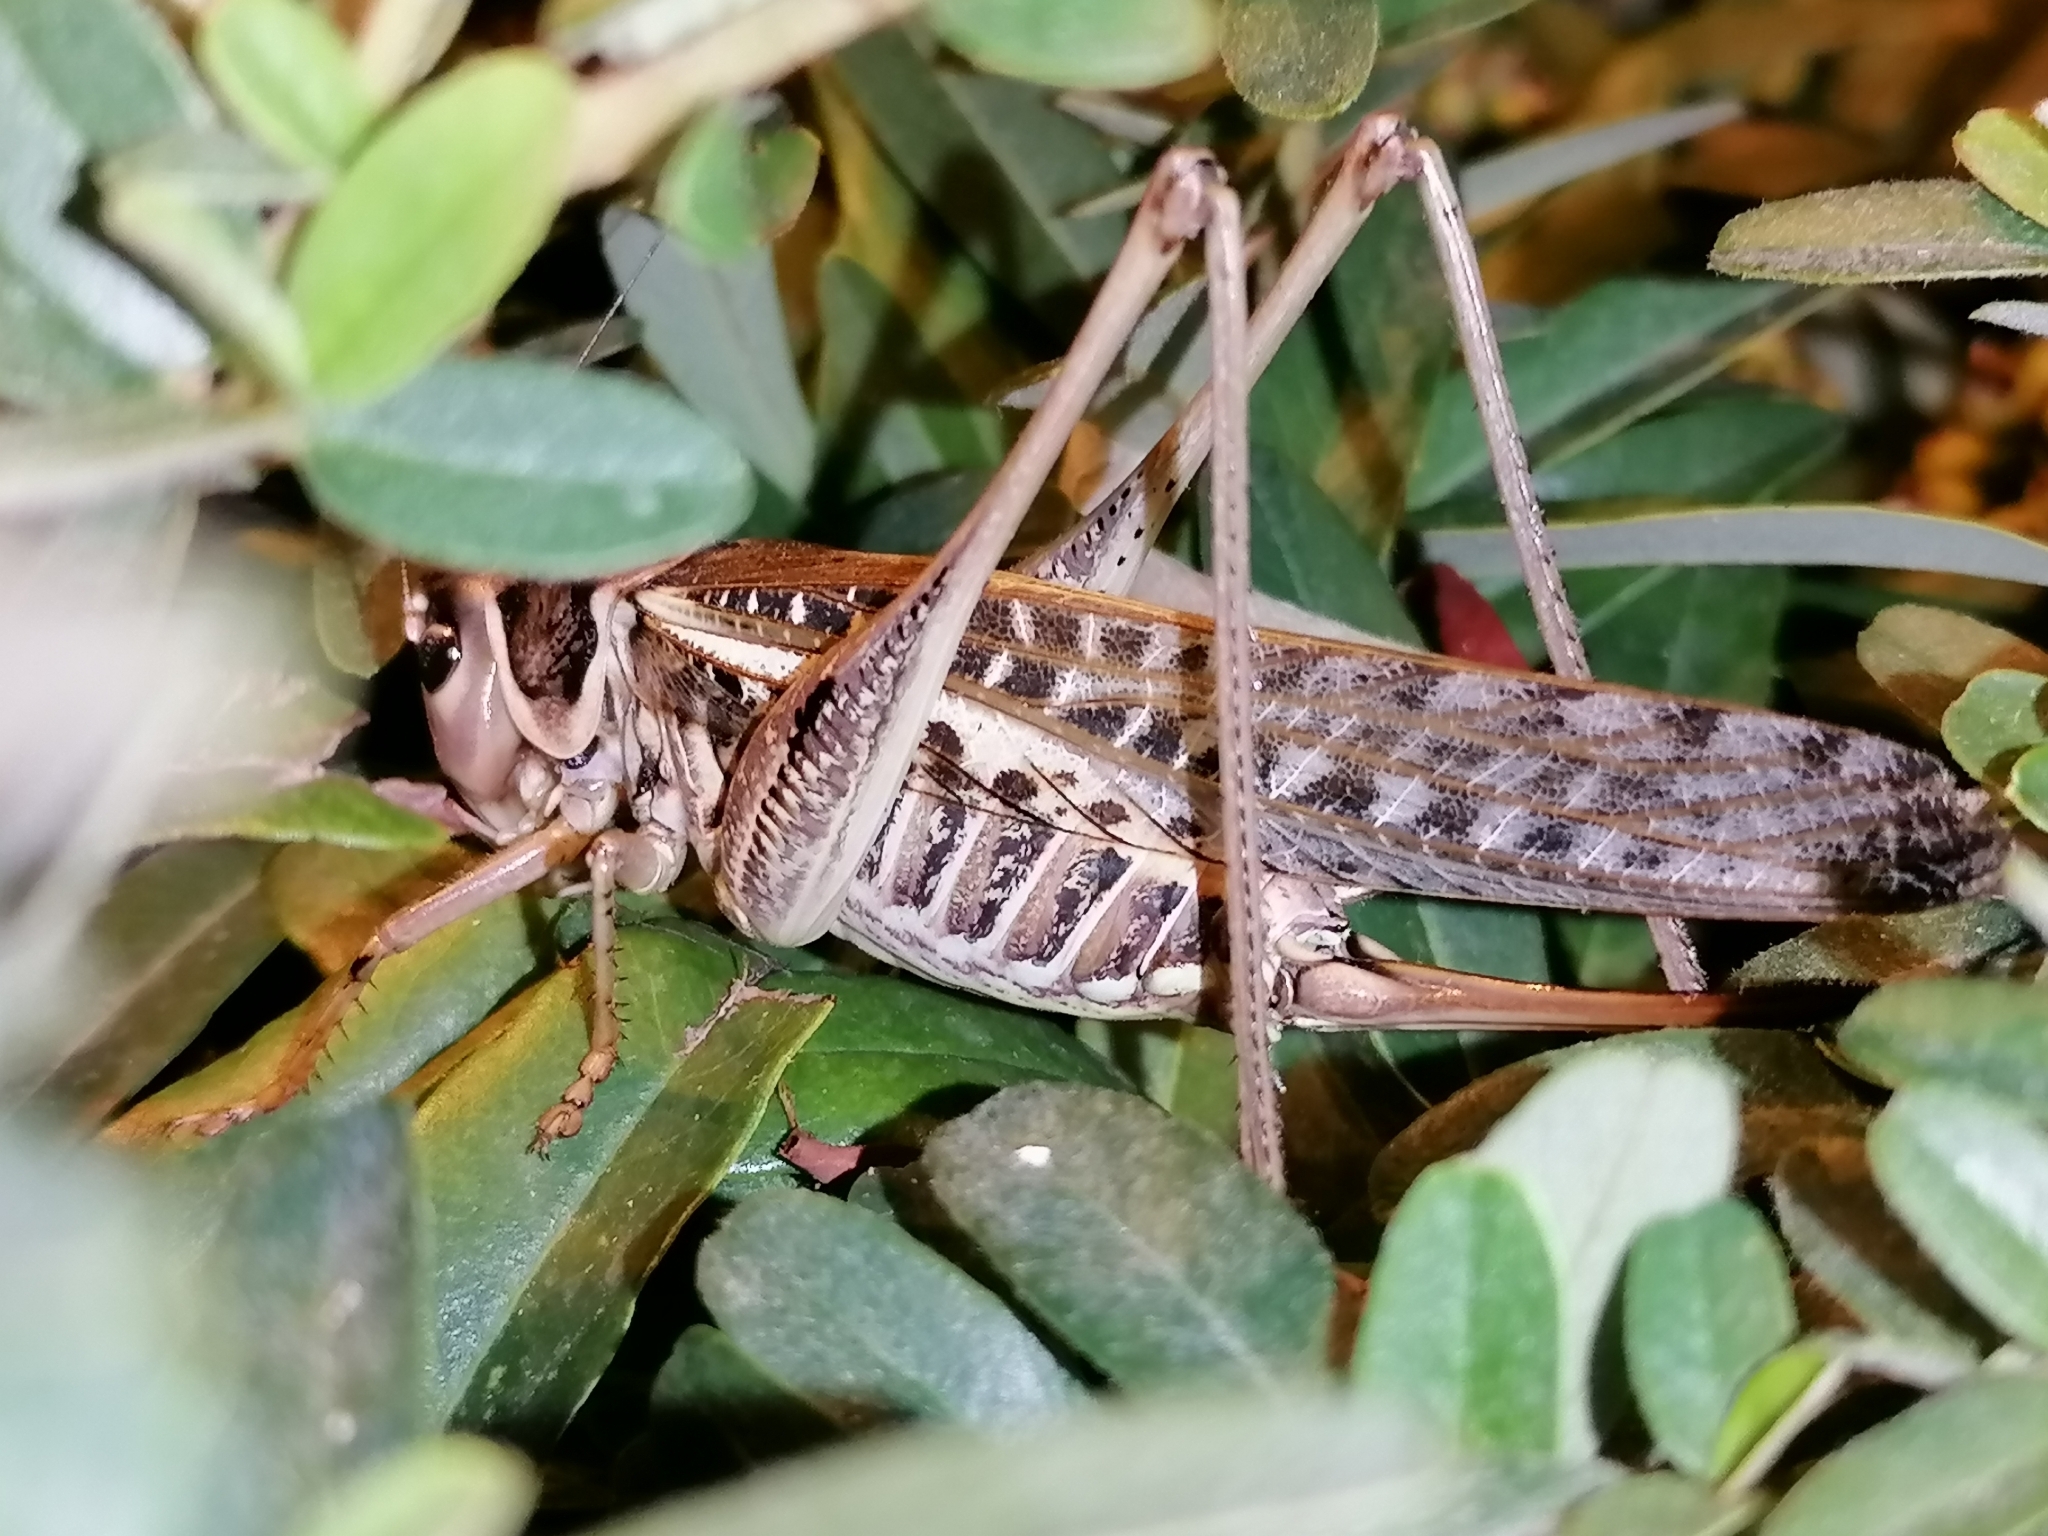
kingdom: Animalia
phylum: Arthropoda
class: Insecta
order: Orthoptera
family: Tettigoniidae
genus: Decticus
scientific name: Decticus albifrons
